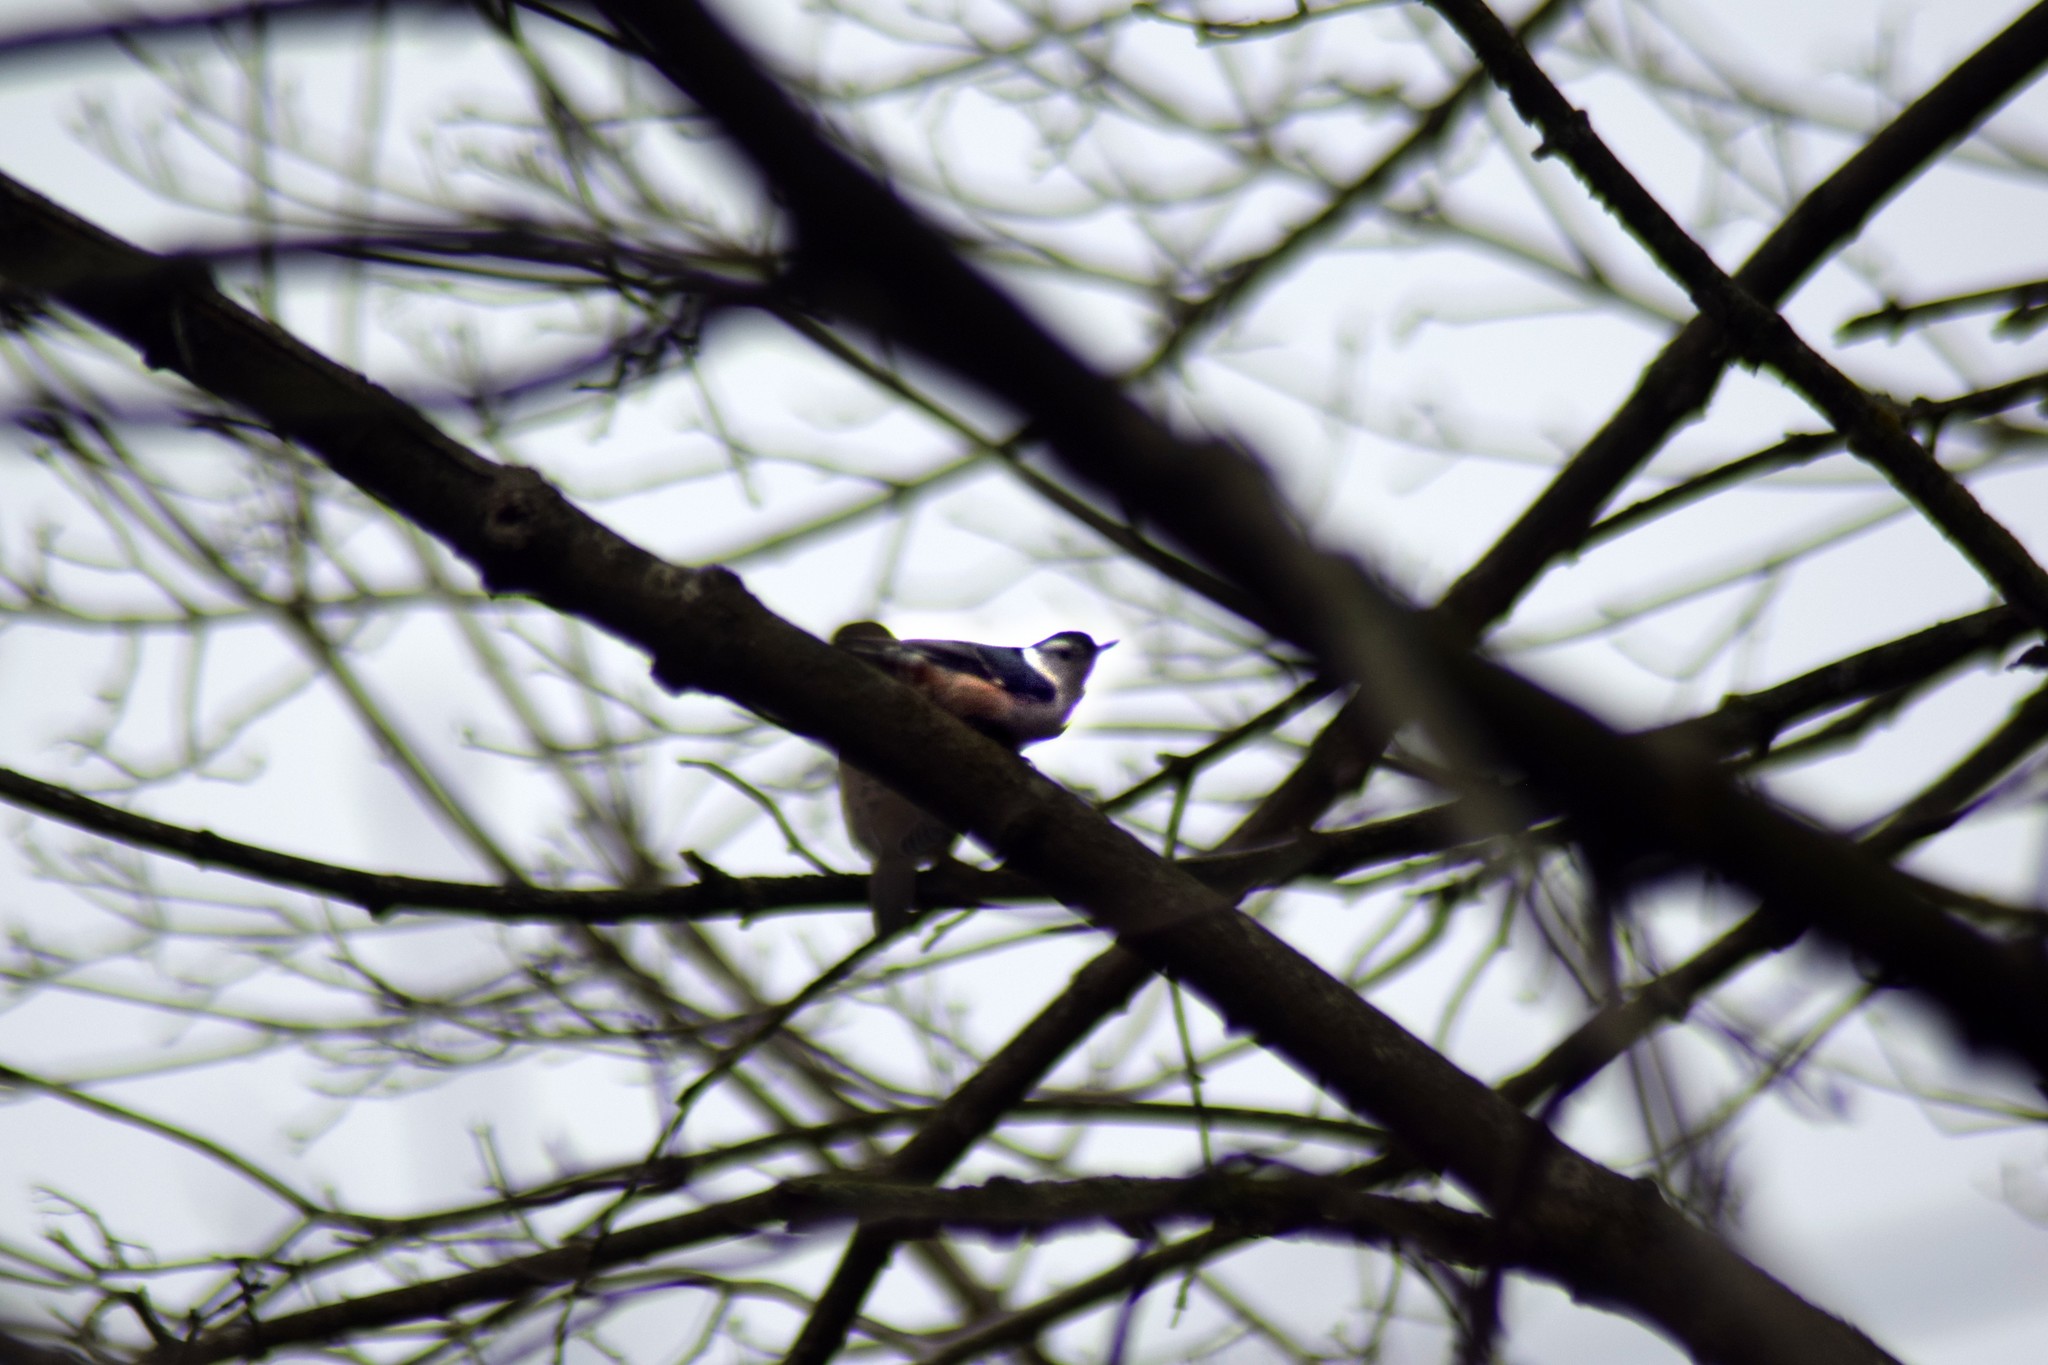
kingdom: Animalia
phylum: Chordata
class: Aves
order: Passeriformes
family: Sittidae
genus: Sitta
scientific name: Sitta carolinensis
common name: White-breasted nuthatch
